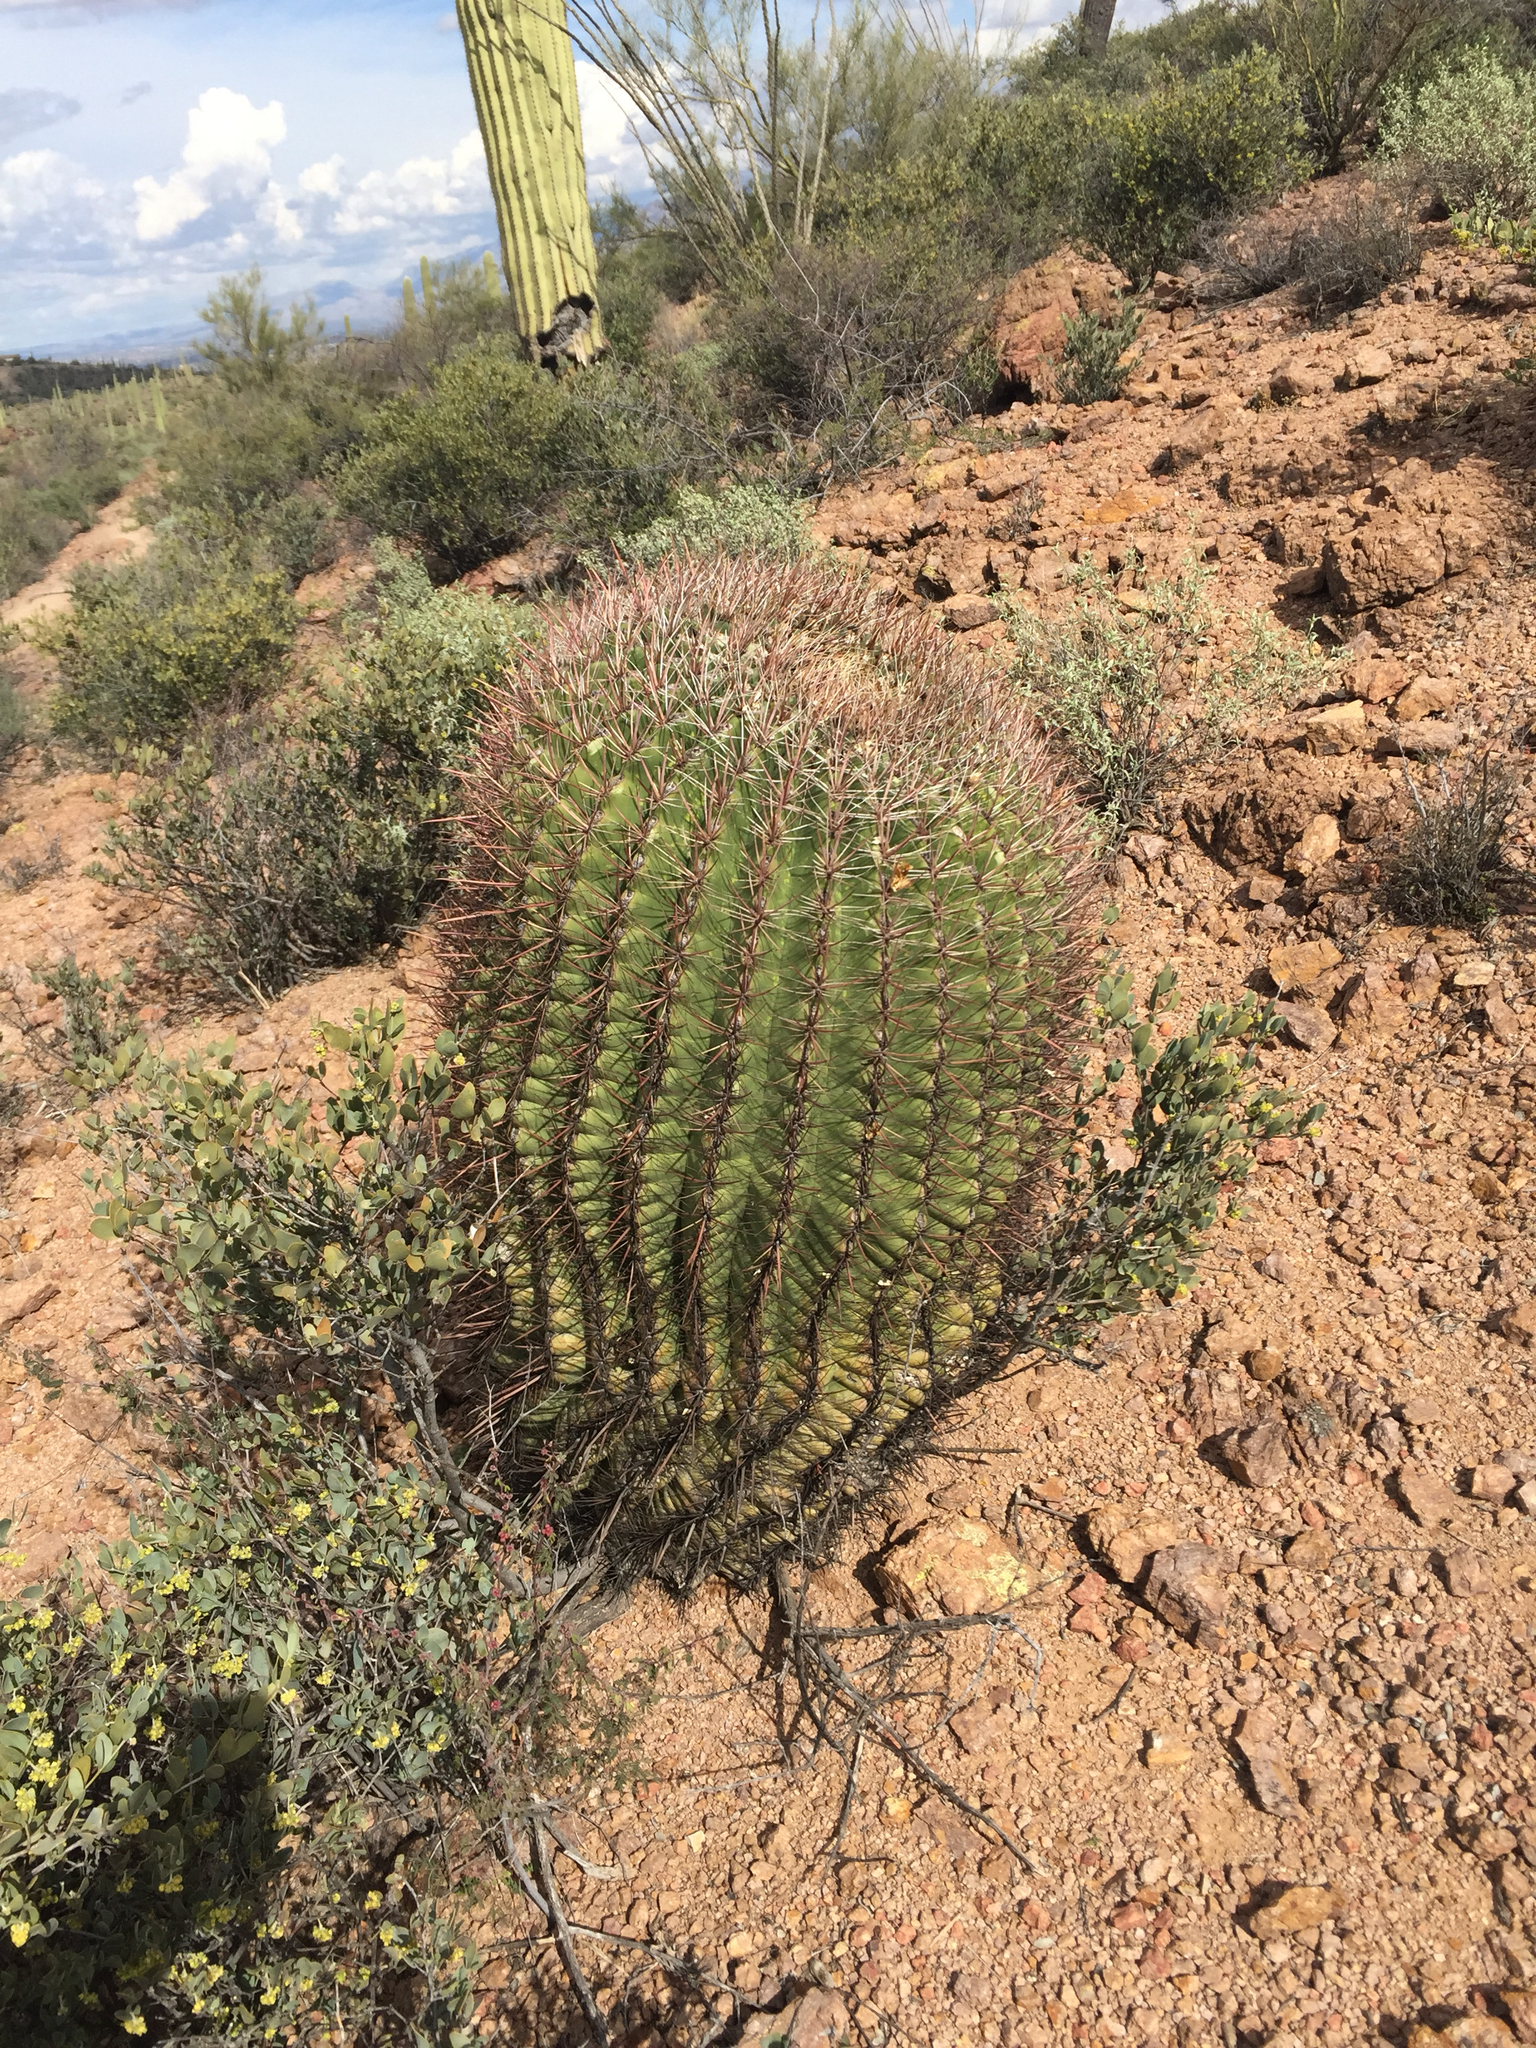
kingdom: Plantae
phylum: Tracheophyta
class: Magnoliopsida
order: Caryophyllales
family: Cactaceae
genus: Ferocactus
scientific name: Ferocactus wislizeni
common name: Candy barrel cactus
